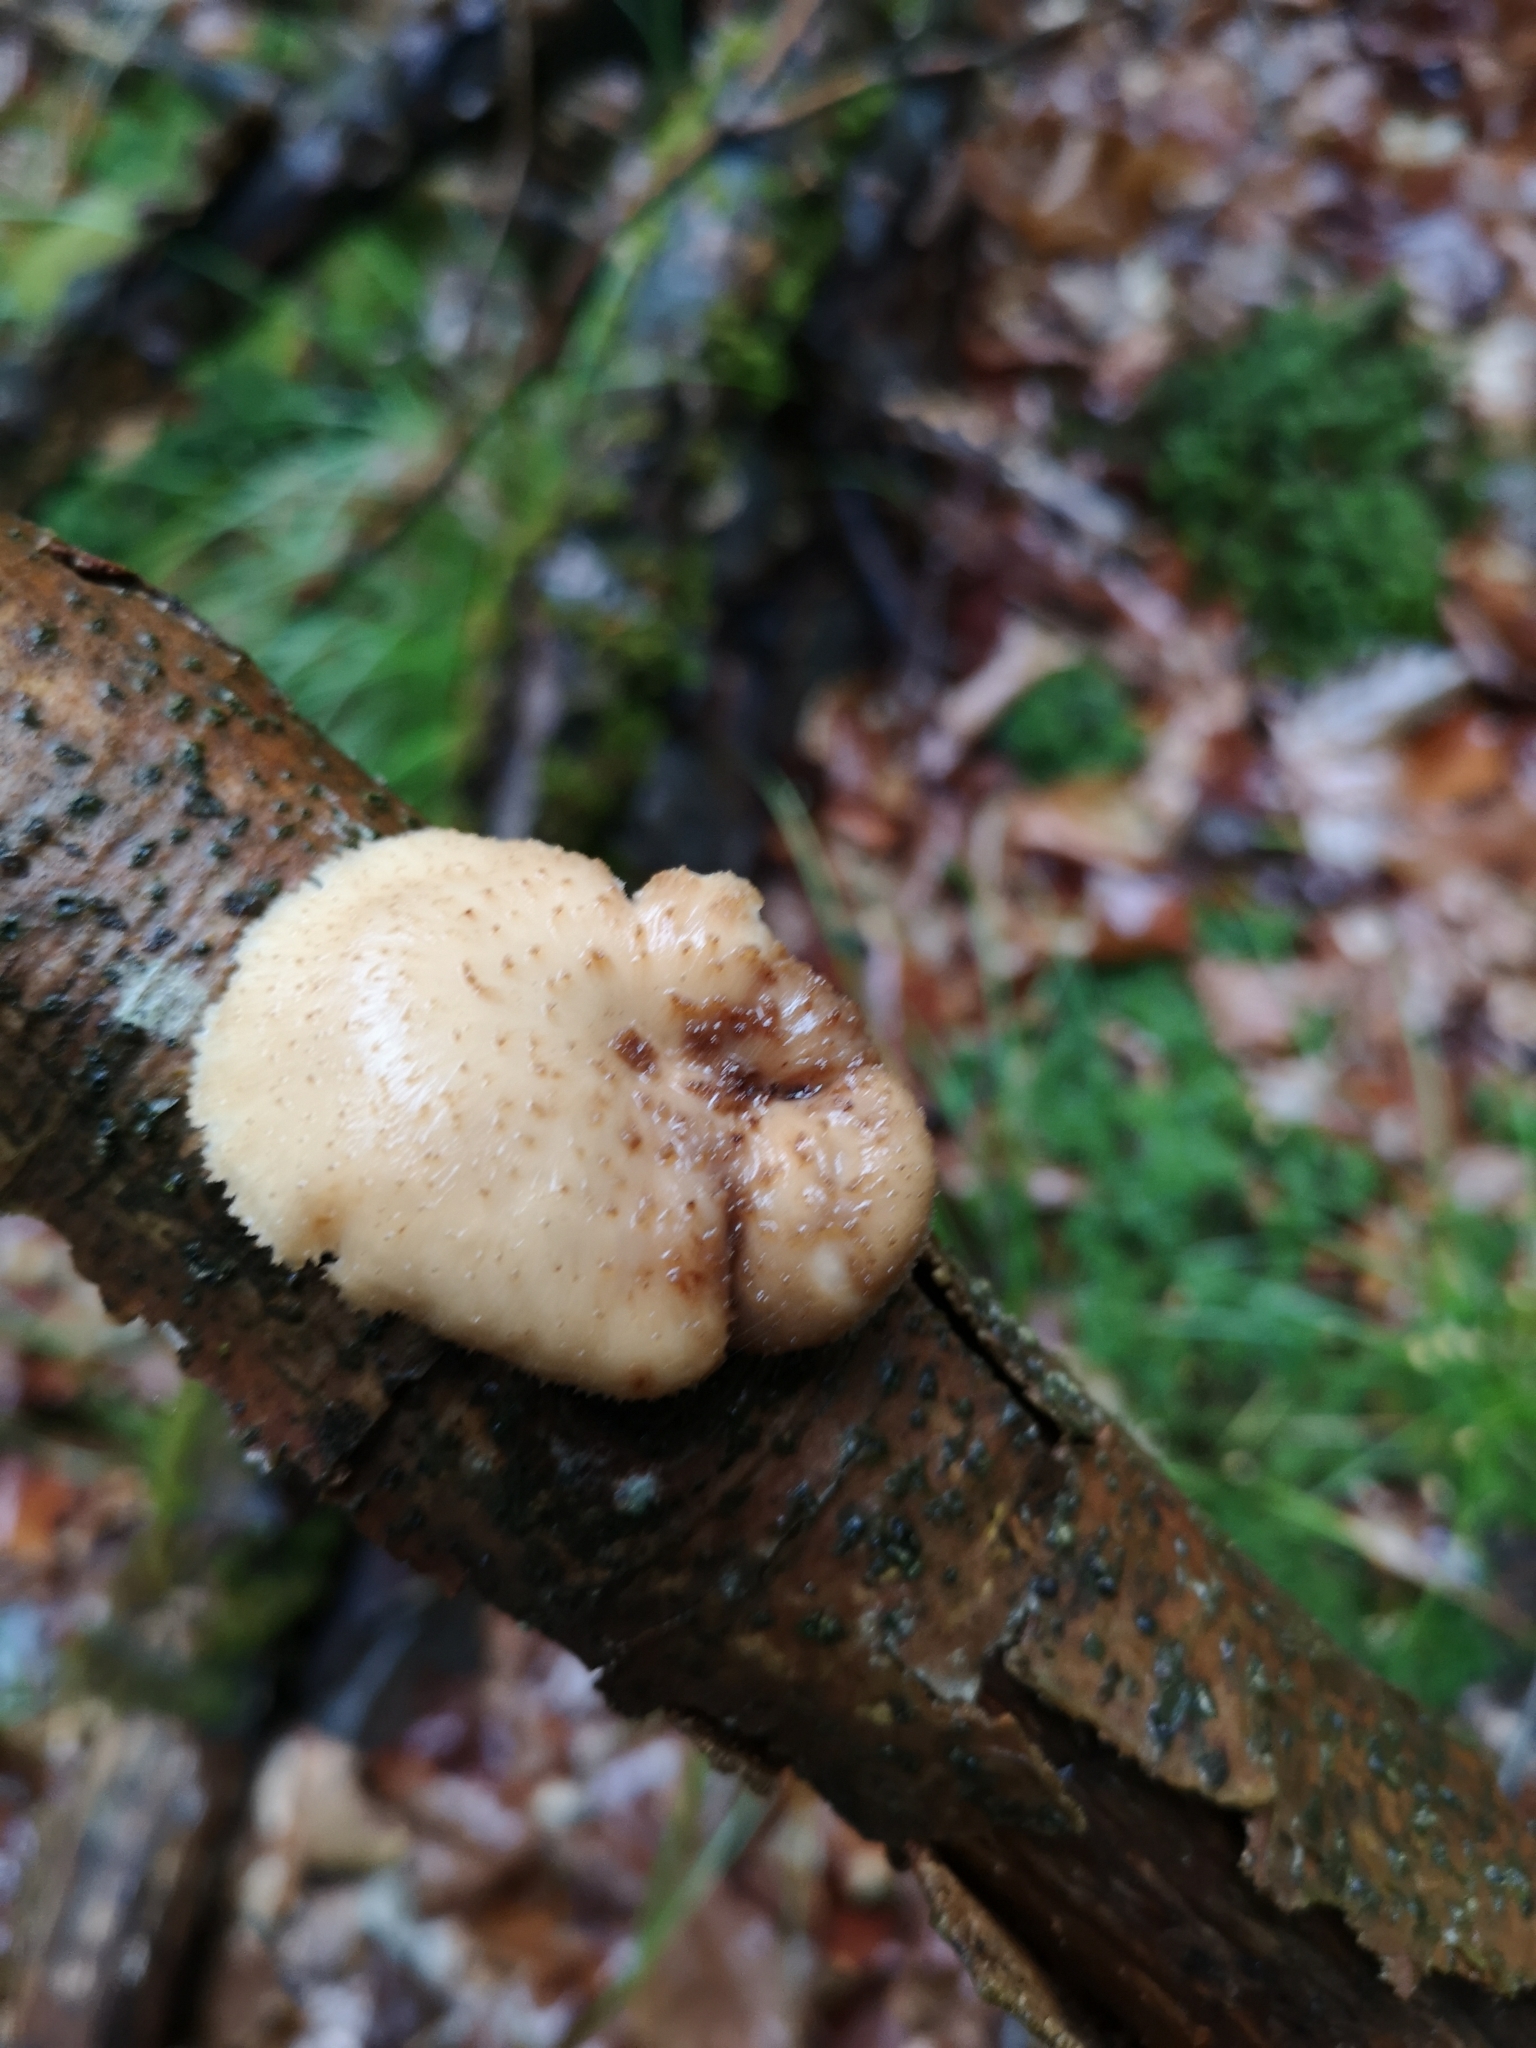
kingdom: Fungi
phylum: Basidiomycota
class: Agaricomycetes
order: Polyporales
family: Polyporaceae
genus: Polyporus
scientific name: Polyporus tuberaster
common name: Tuberous polypore
